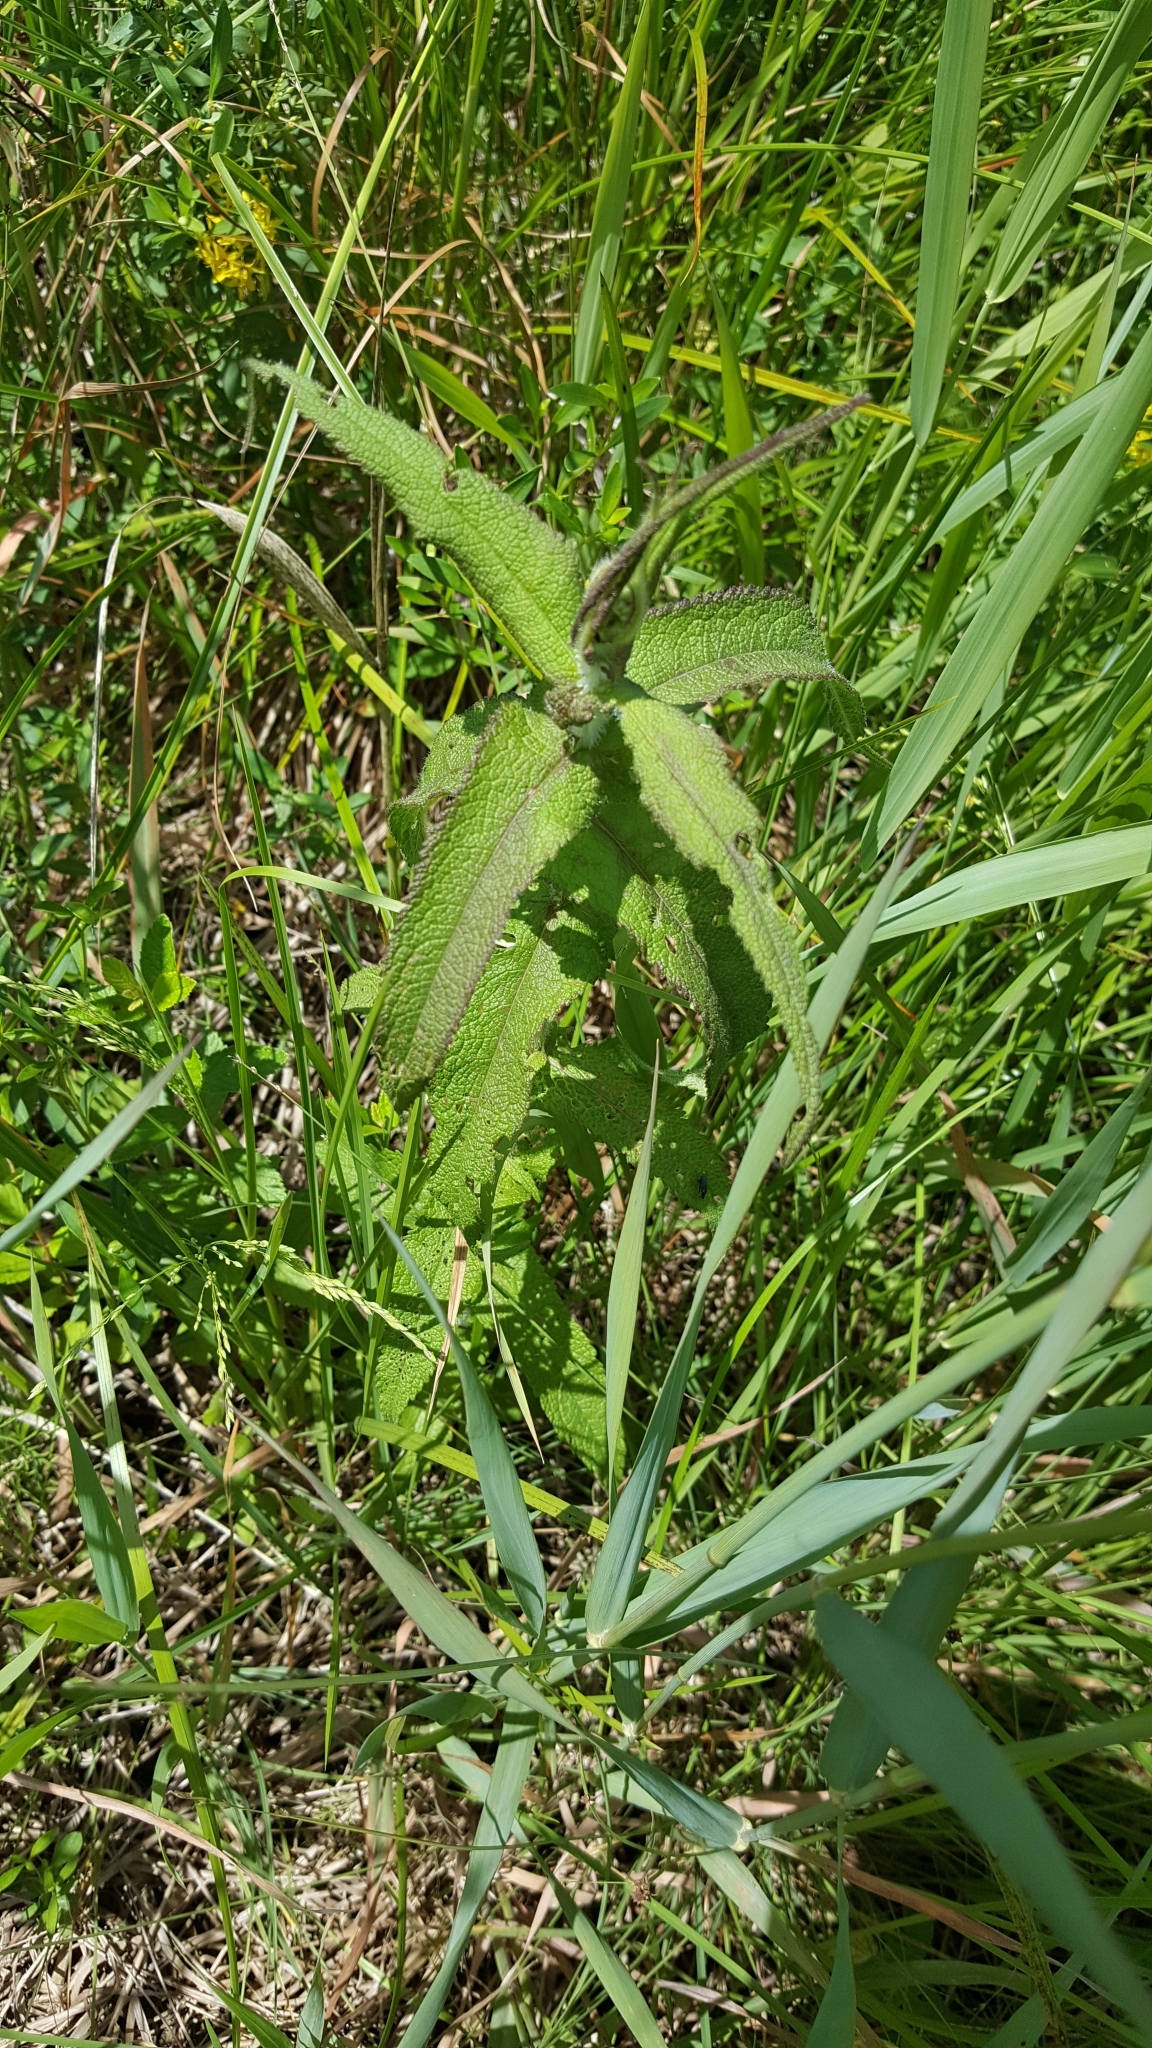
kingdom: Plantae
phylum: Tracheophyta
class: Magnoliopsida
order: Asterales
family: Asteraceae
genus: Eupatorium
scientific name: Eupatorium perfoliatum
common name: Boneset
